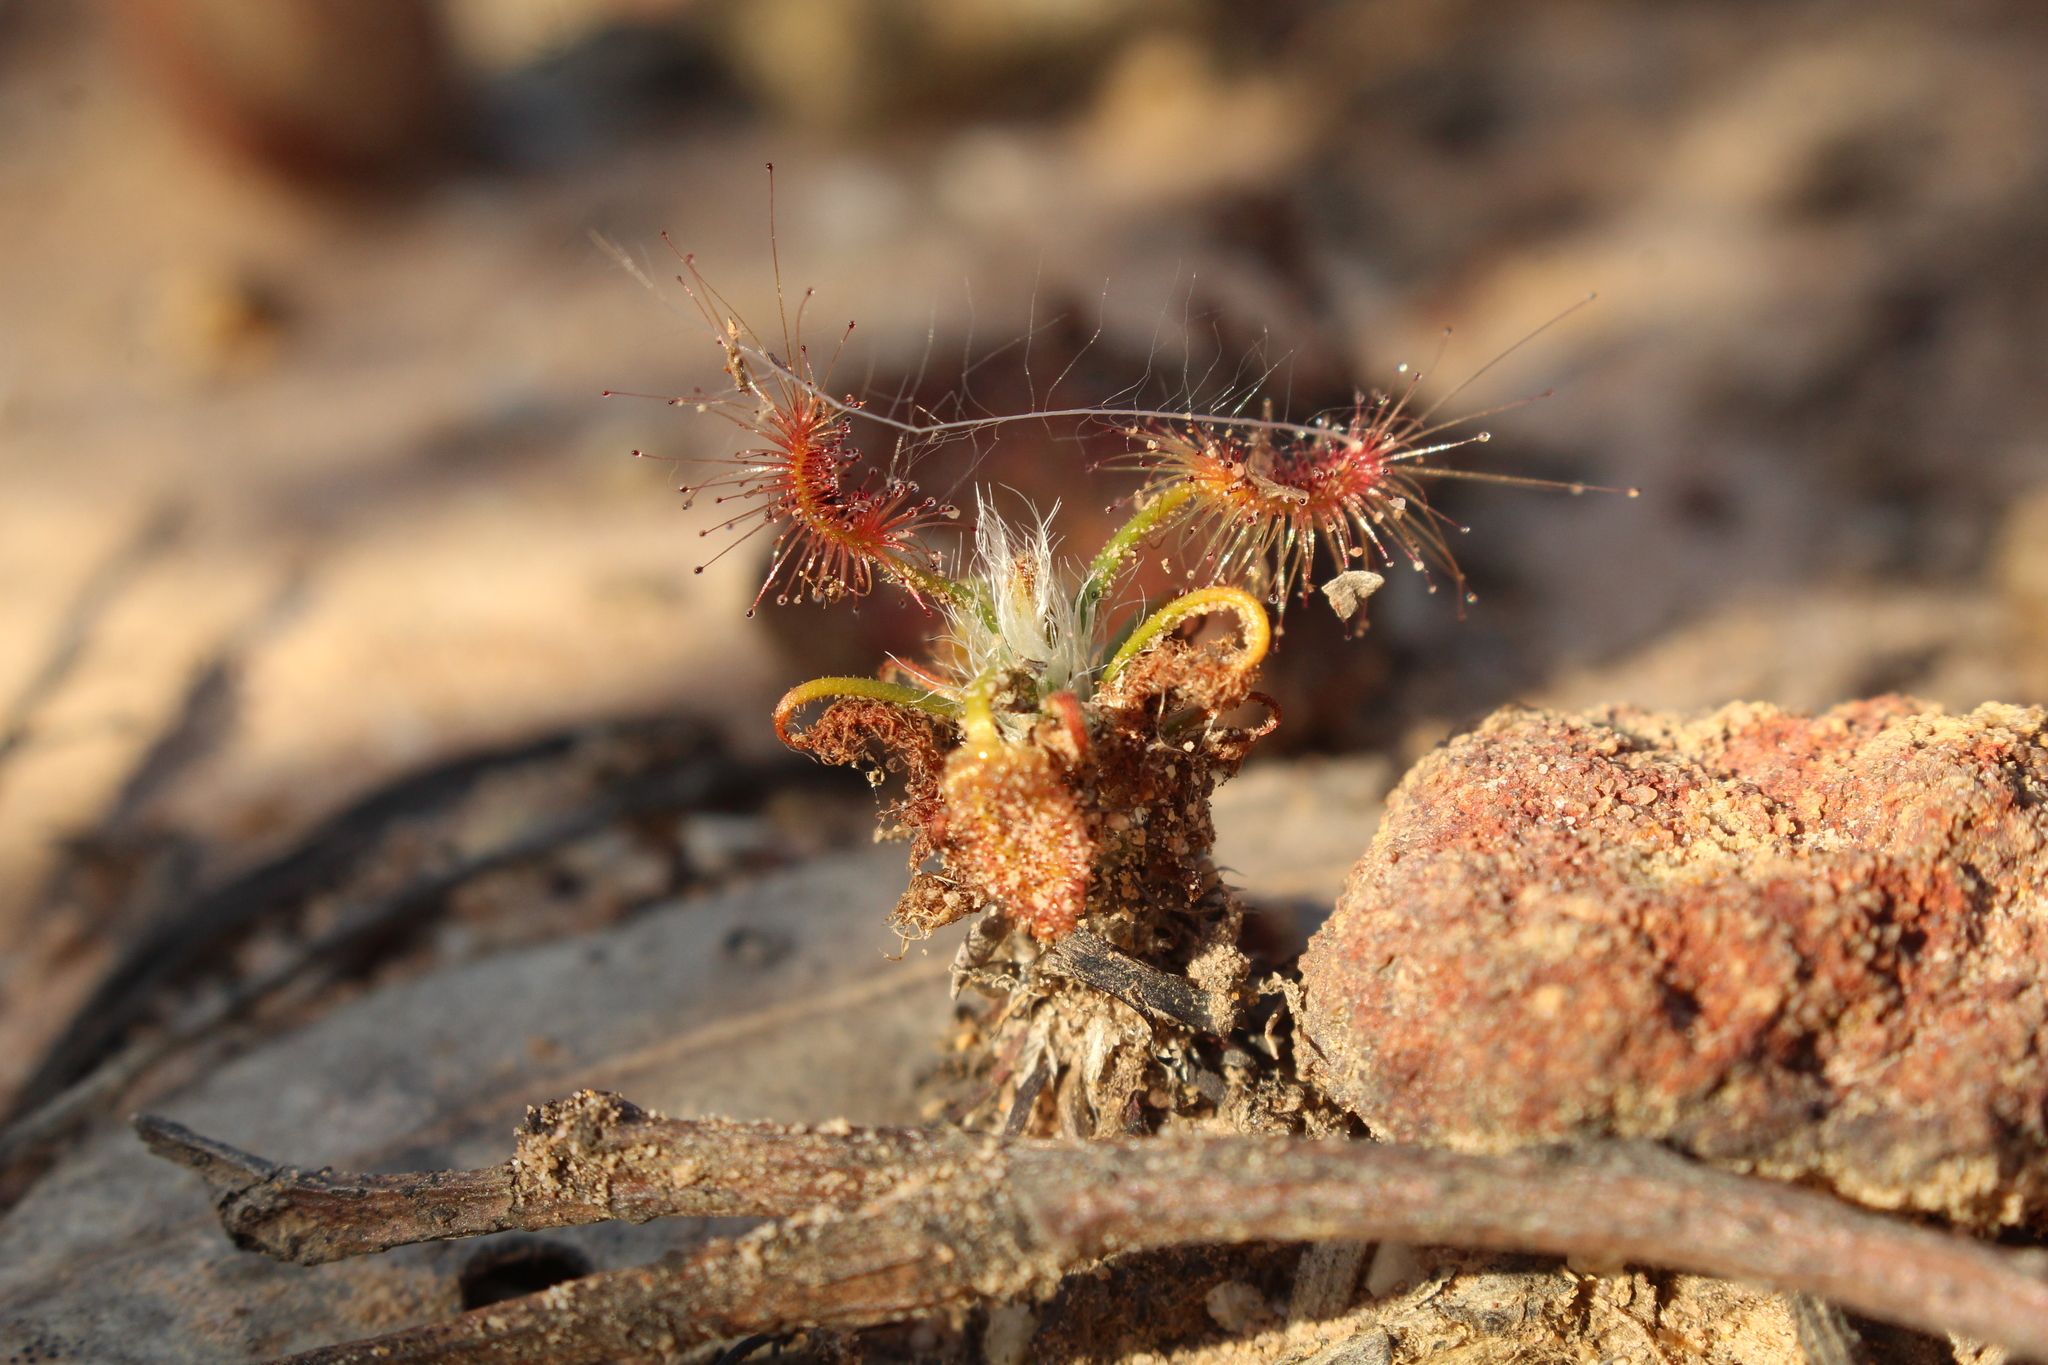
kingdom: Plantae
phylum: Tracheophyta
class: Magnoliopsida
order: Caryophyllales
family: Droseraceae
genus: Drosera
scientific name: Drosera scorpioides
